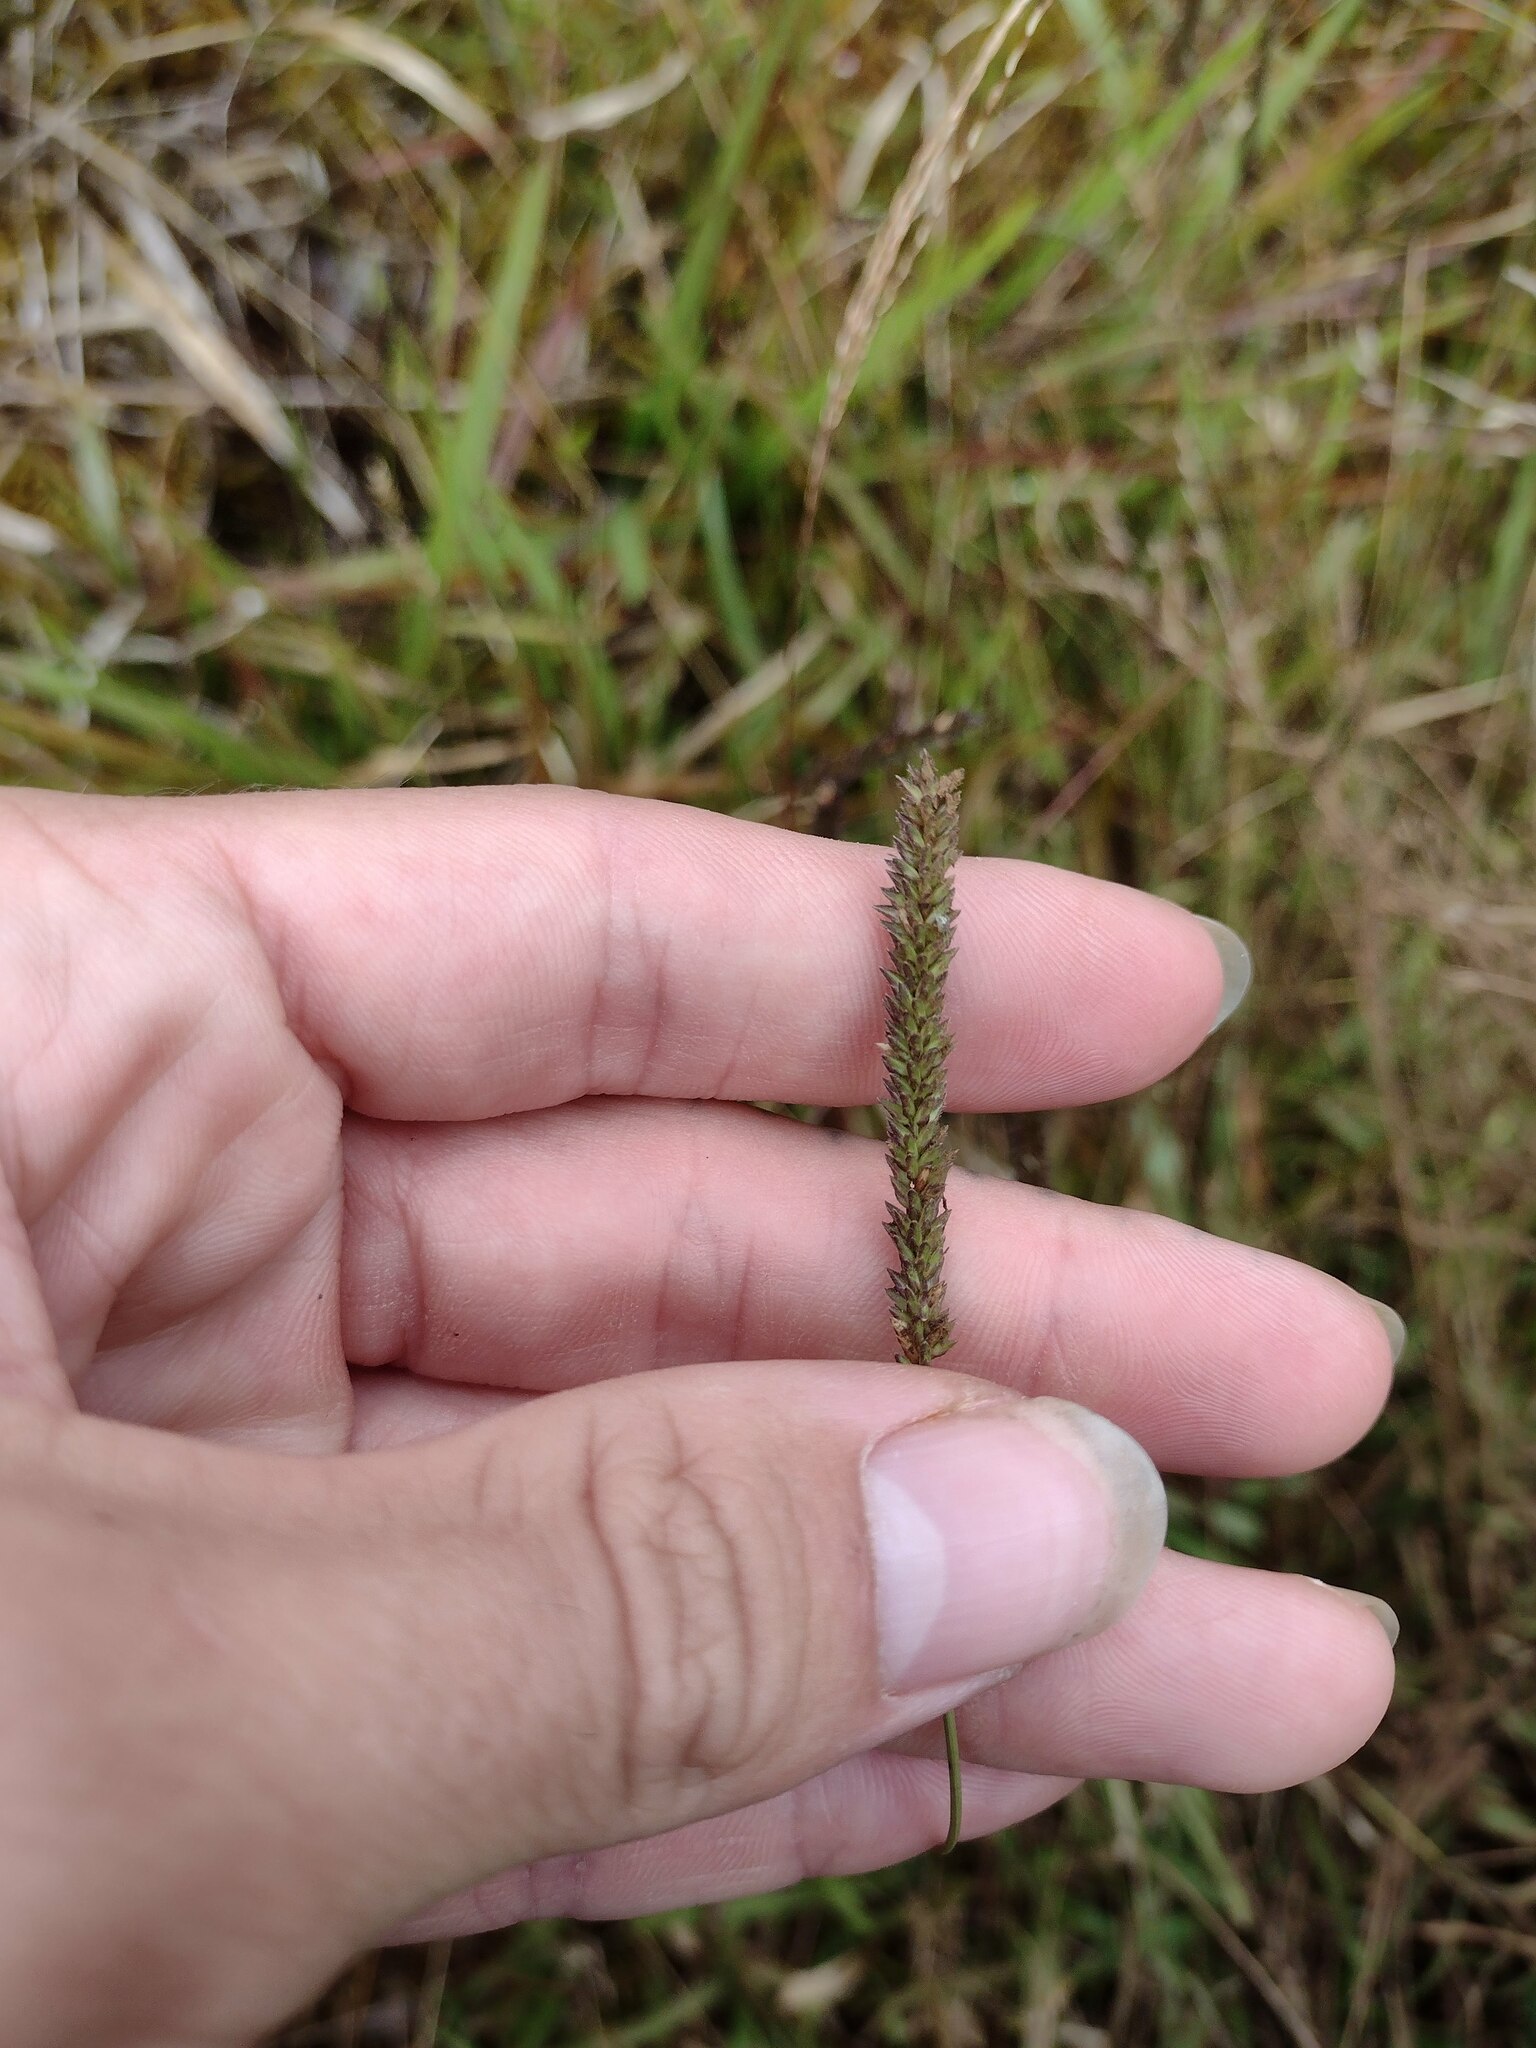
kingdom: Plantae
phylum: Tracheophyta
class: Liliopsida
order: Poales
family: Poaceae
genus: Sacciolepis
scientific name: Sacciolepis indica
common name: Glenwoodgrass
